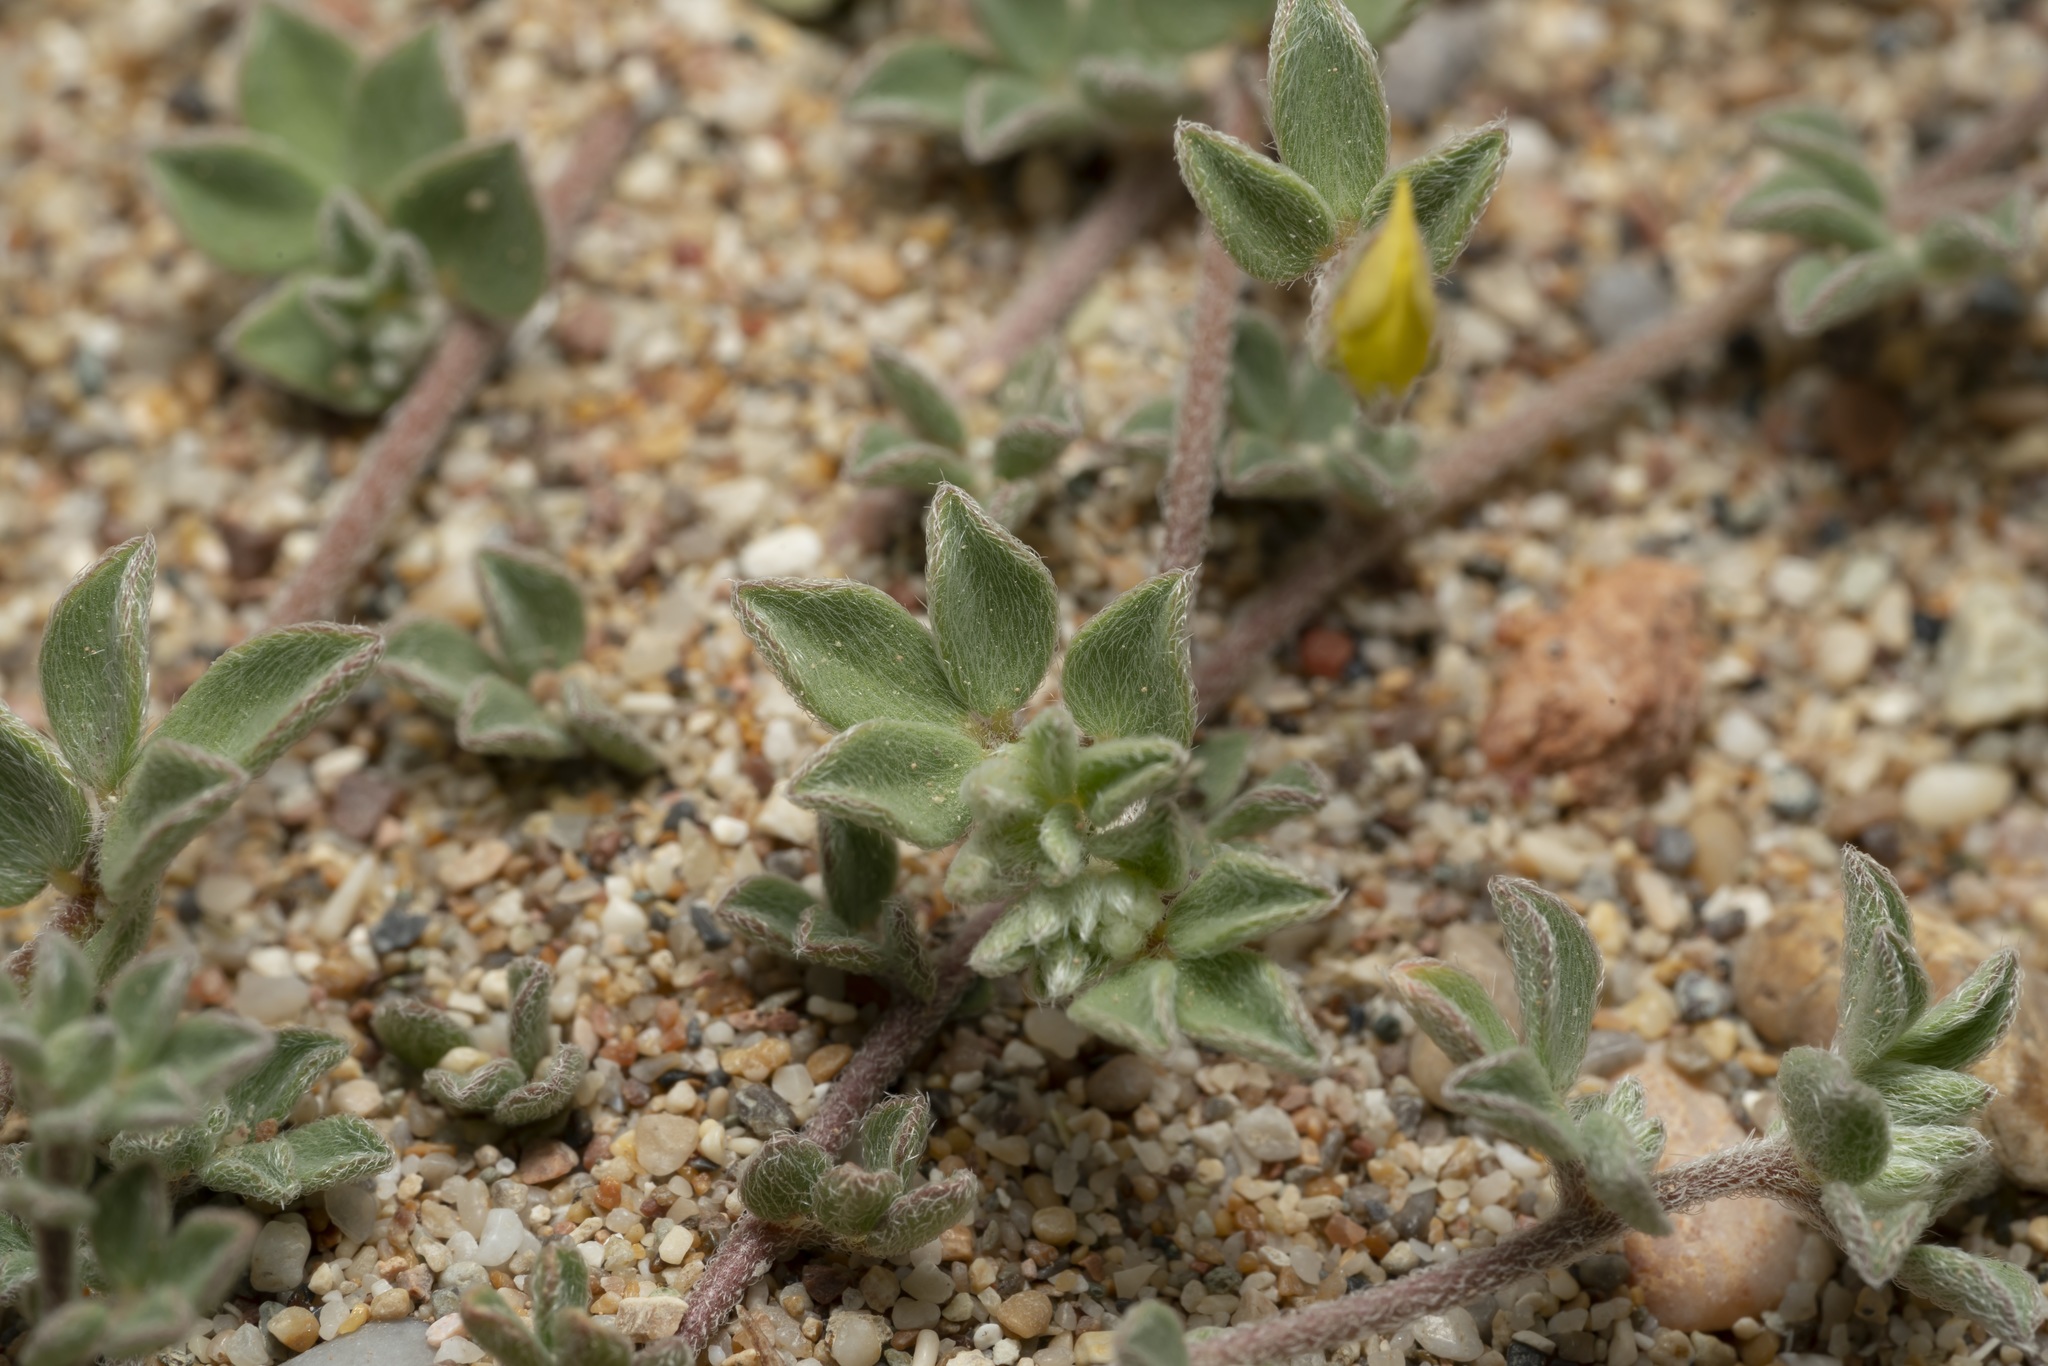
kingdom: Plantae
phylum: Tracheophyta
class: Magnoliopsida
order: Fabales
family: Fabaceae
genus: Lotus
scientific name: Lotus halophilus
